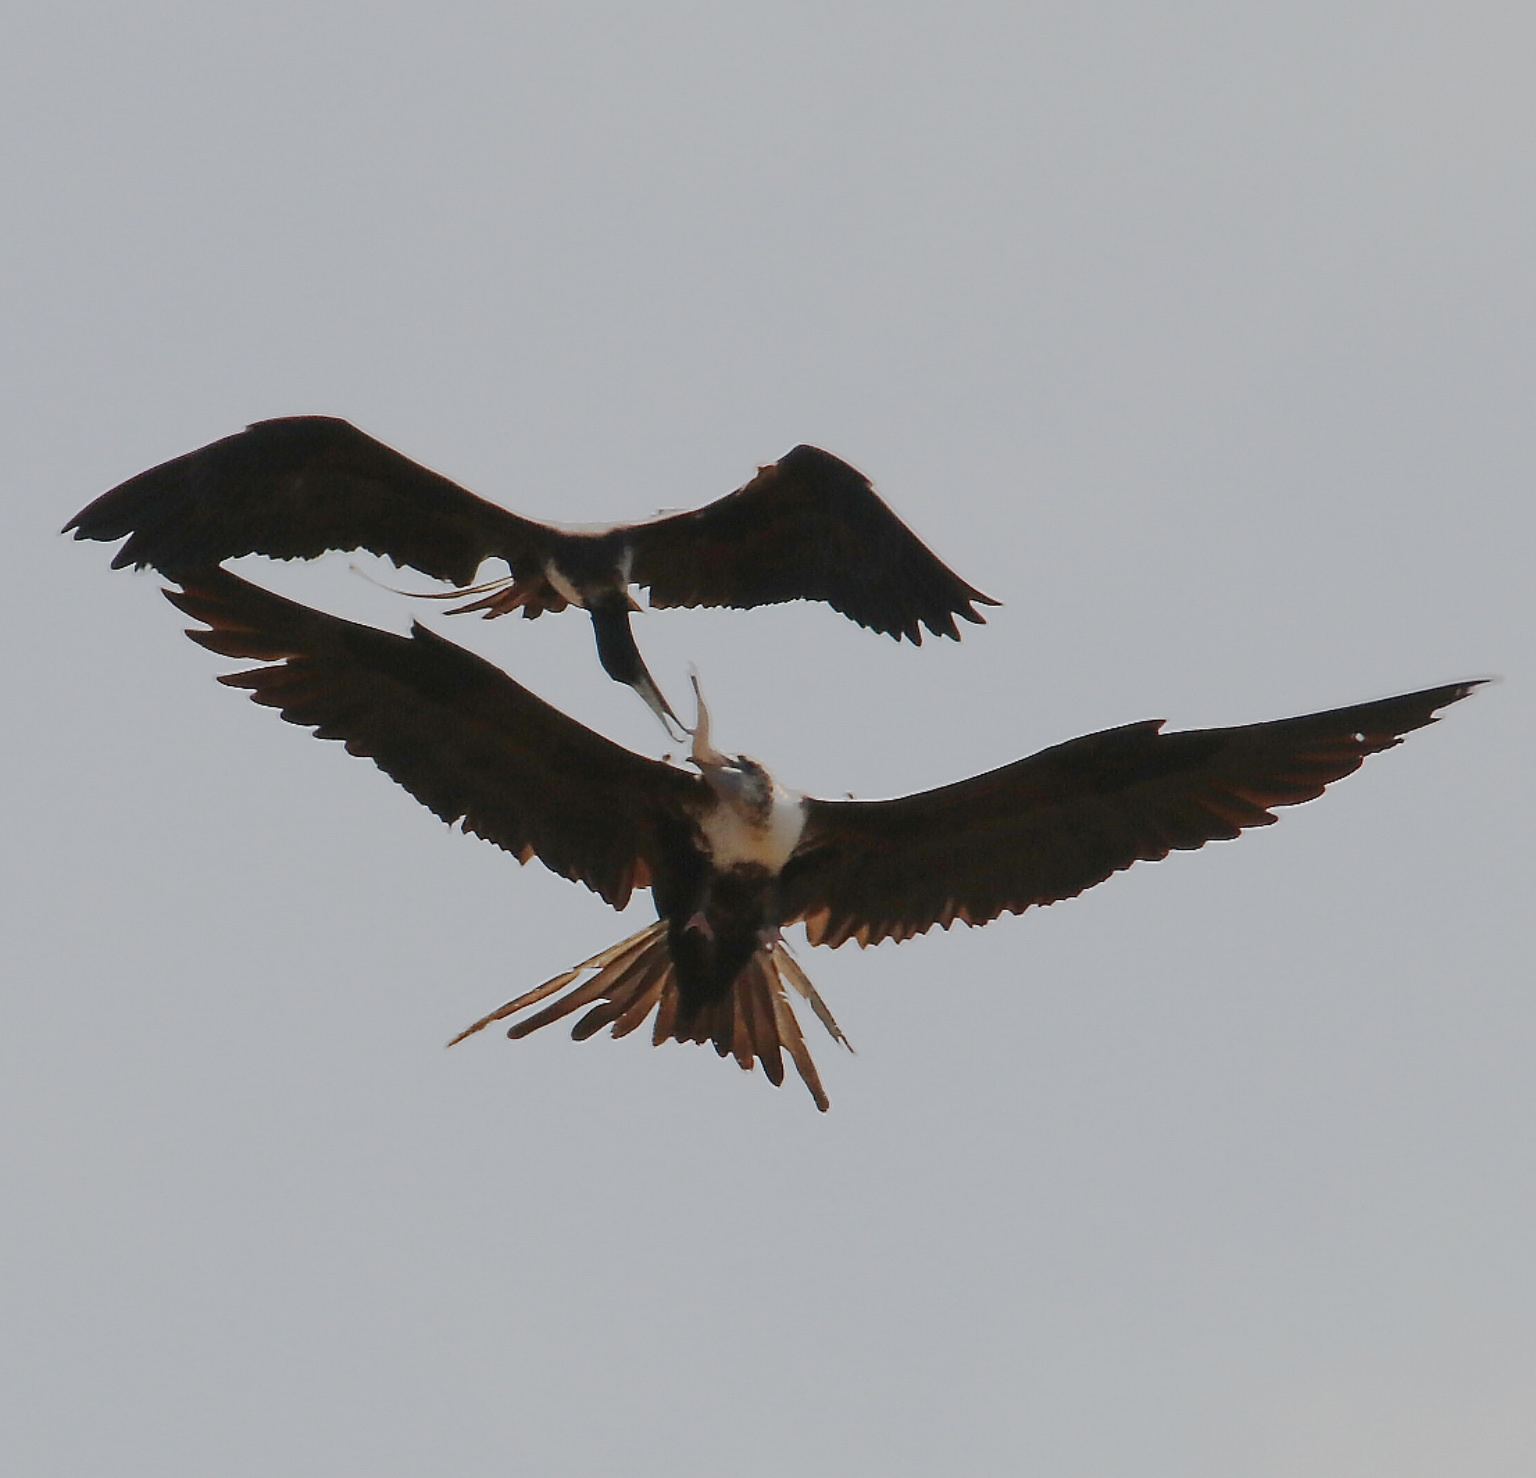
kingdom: Animalia
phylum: Chordata
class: Aves
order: Suliformes
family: Fregatidae
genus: Fregata
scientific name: Fregata magnificens
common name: Magnificent frigatebird
